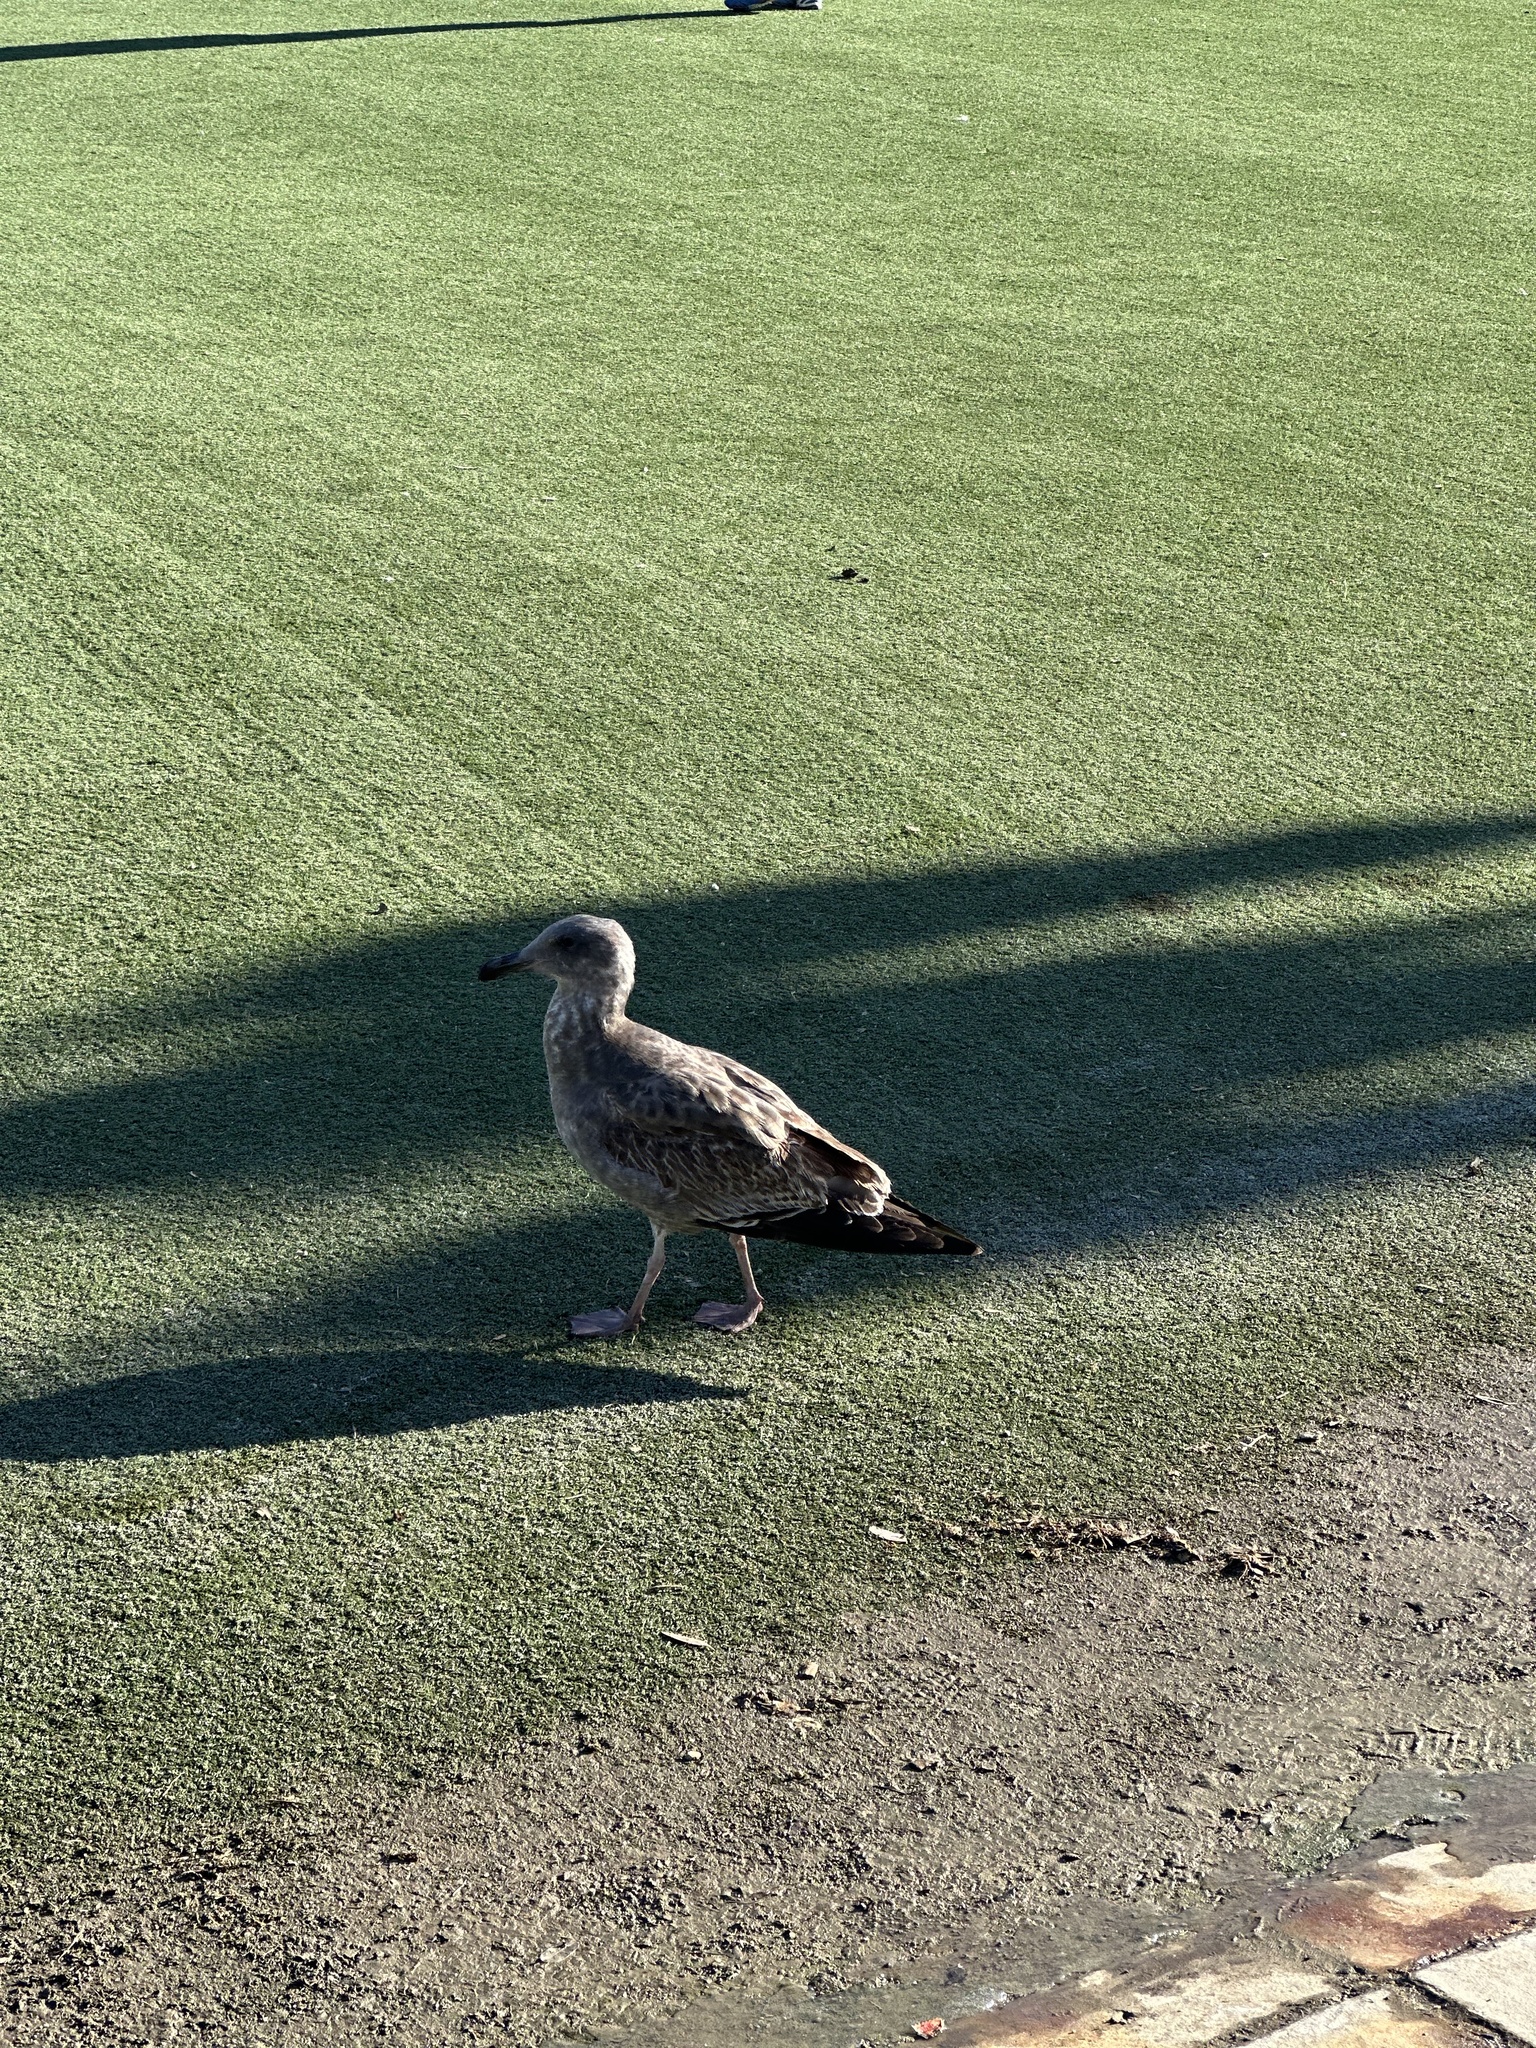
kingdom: Animalia
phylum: Chordata
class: Aves
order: Charadriiformes
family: Laridae
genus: Larus
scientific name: Larus occidentalis
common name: Western gull
